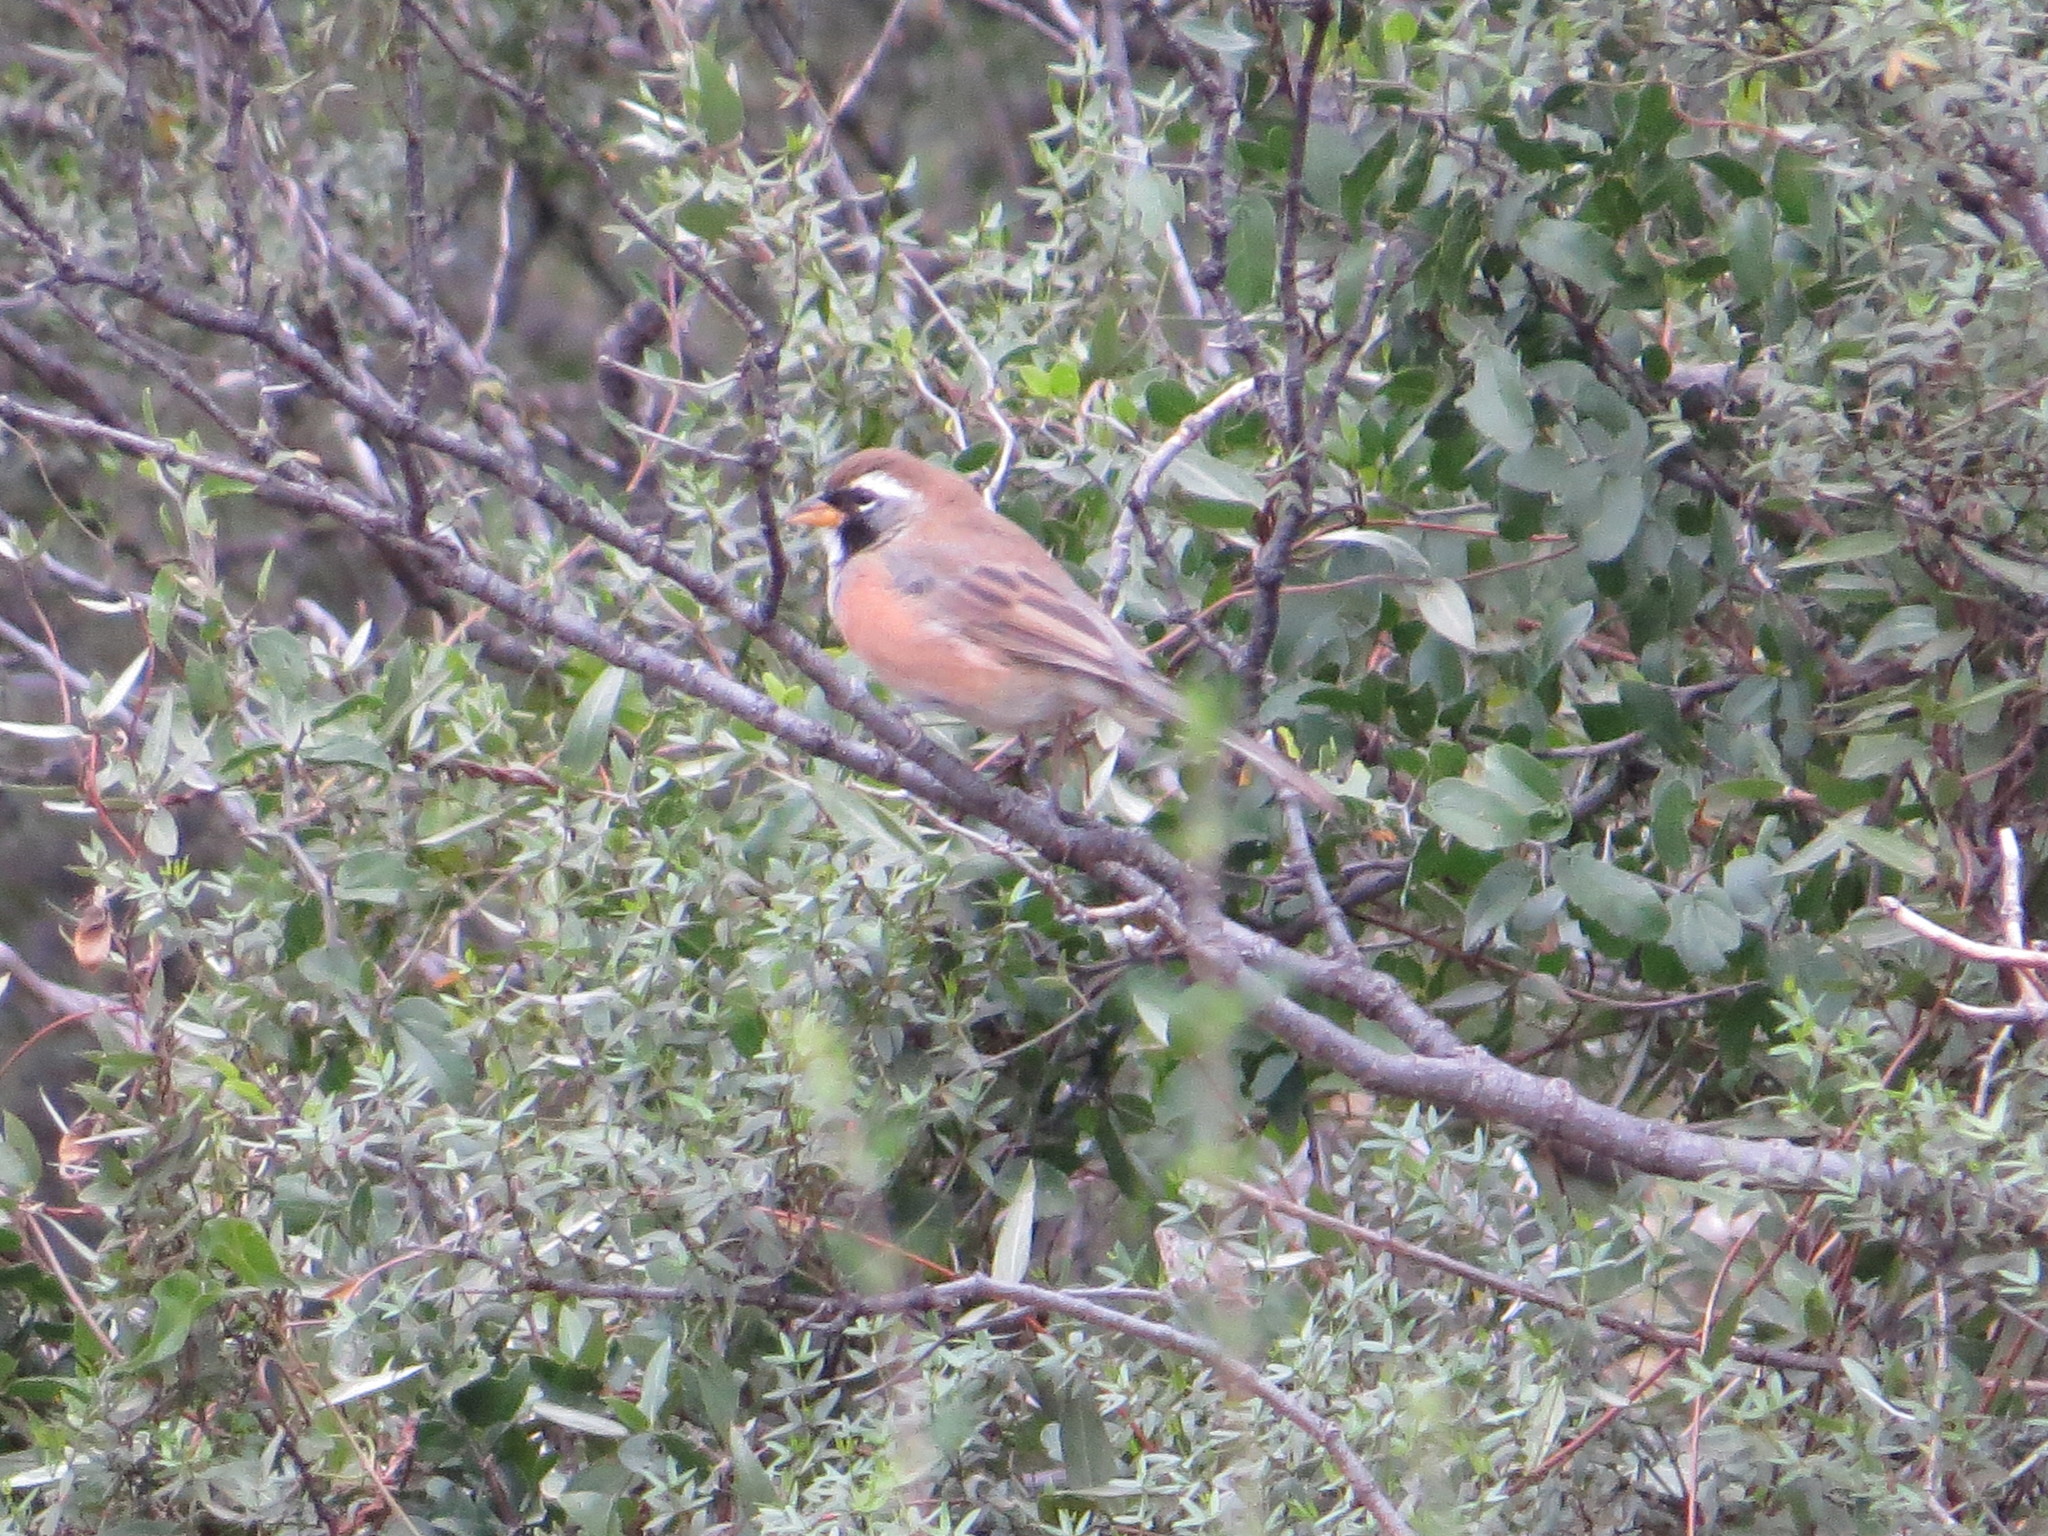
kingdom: Animalia
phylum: Chordata
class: Aves
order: Passeriformes
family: Thraupidae
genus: Poospiza
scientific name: Poospiza ornata
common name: Cinnamon warbling finch
